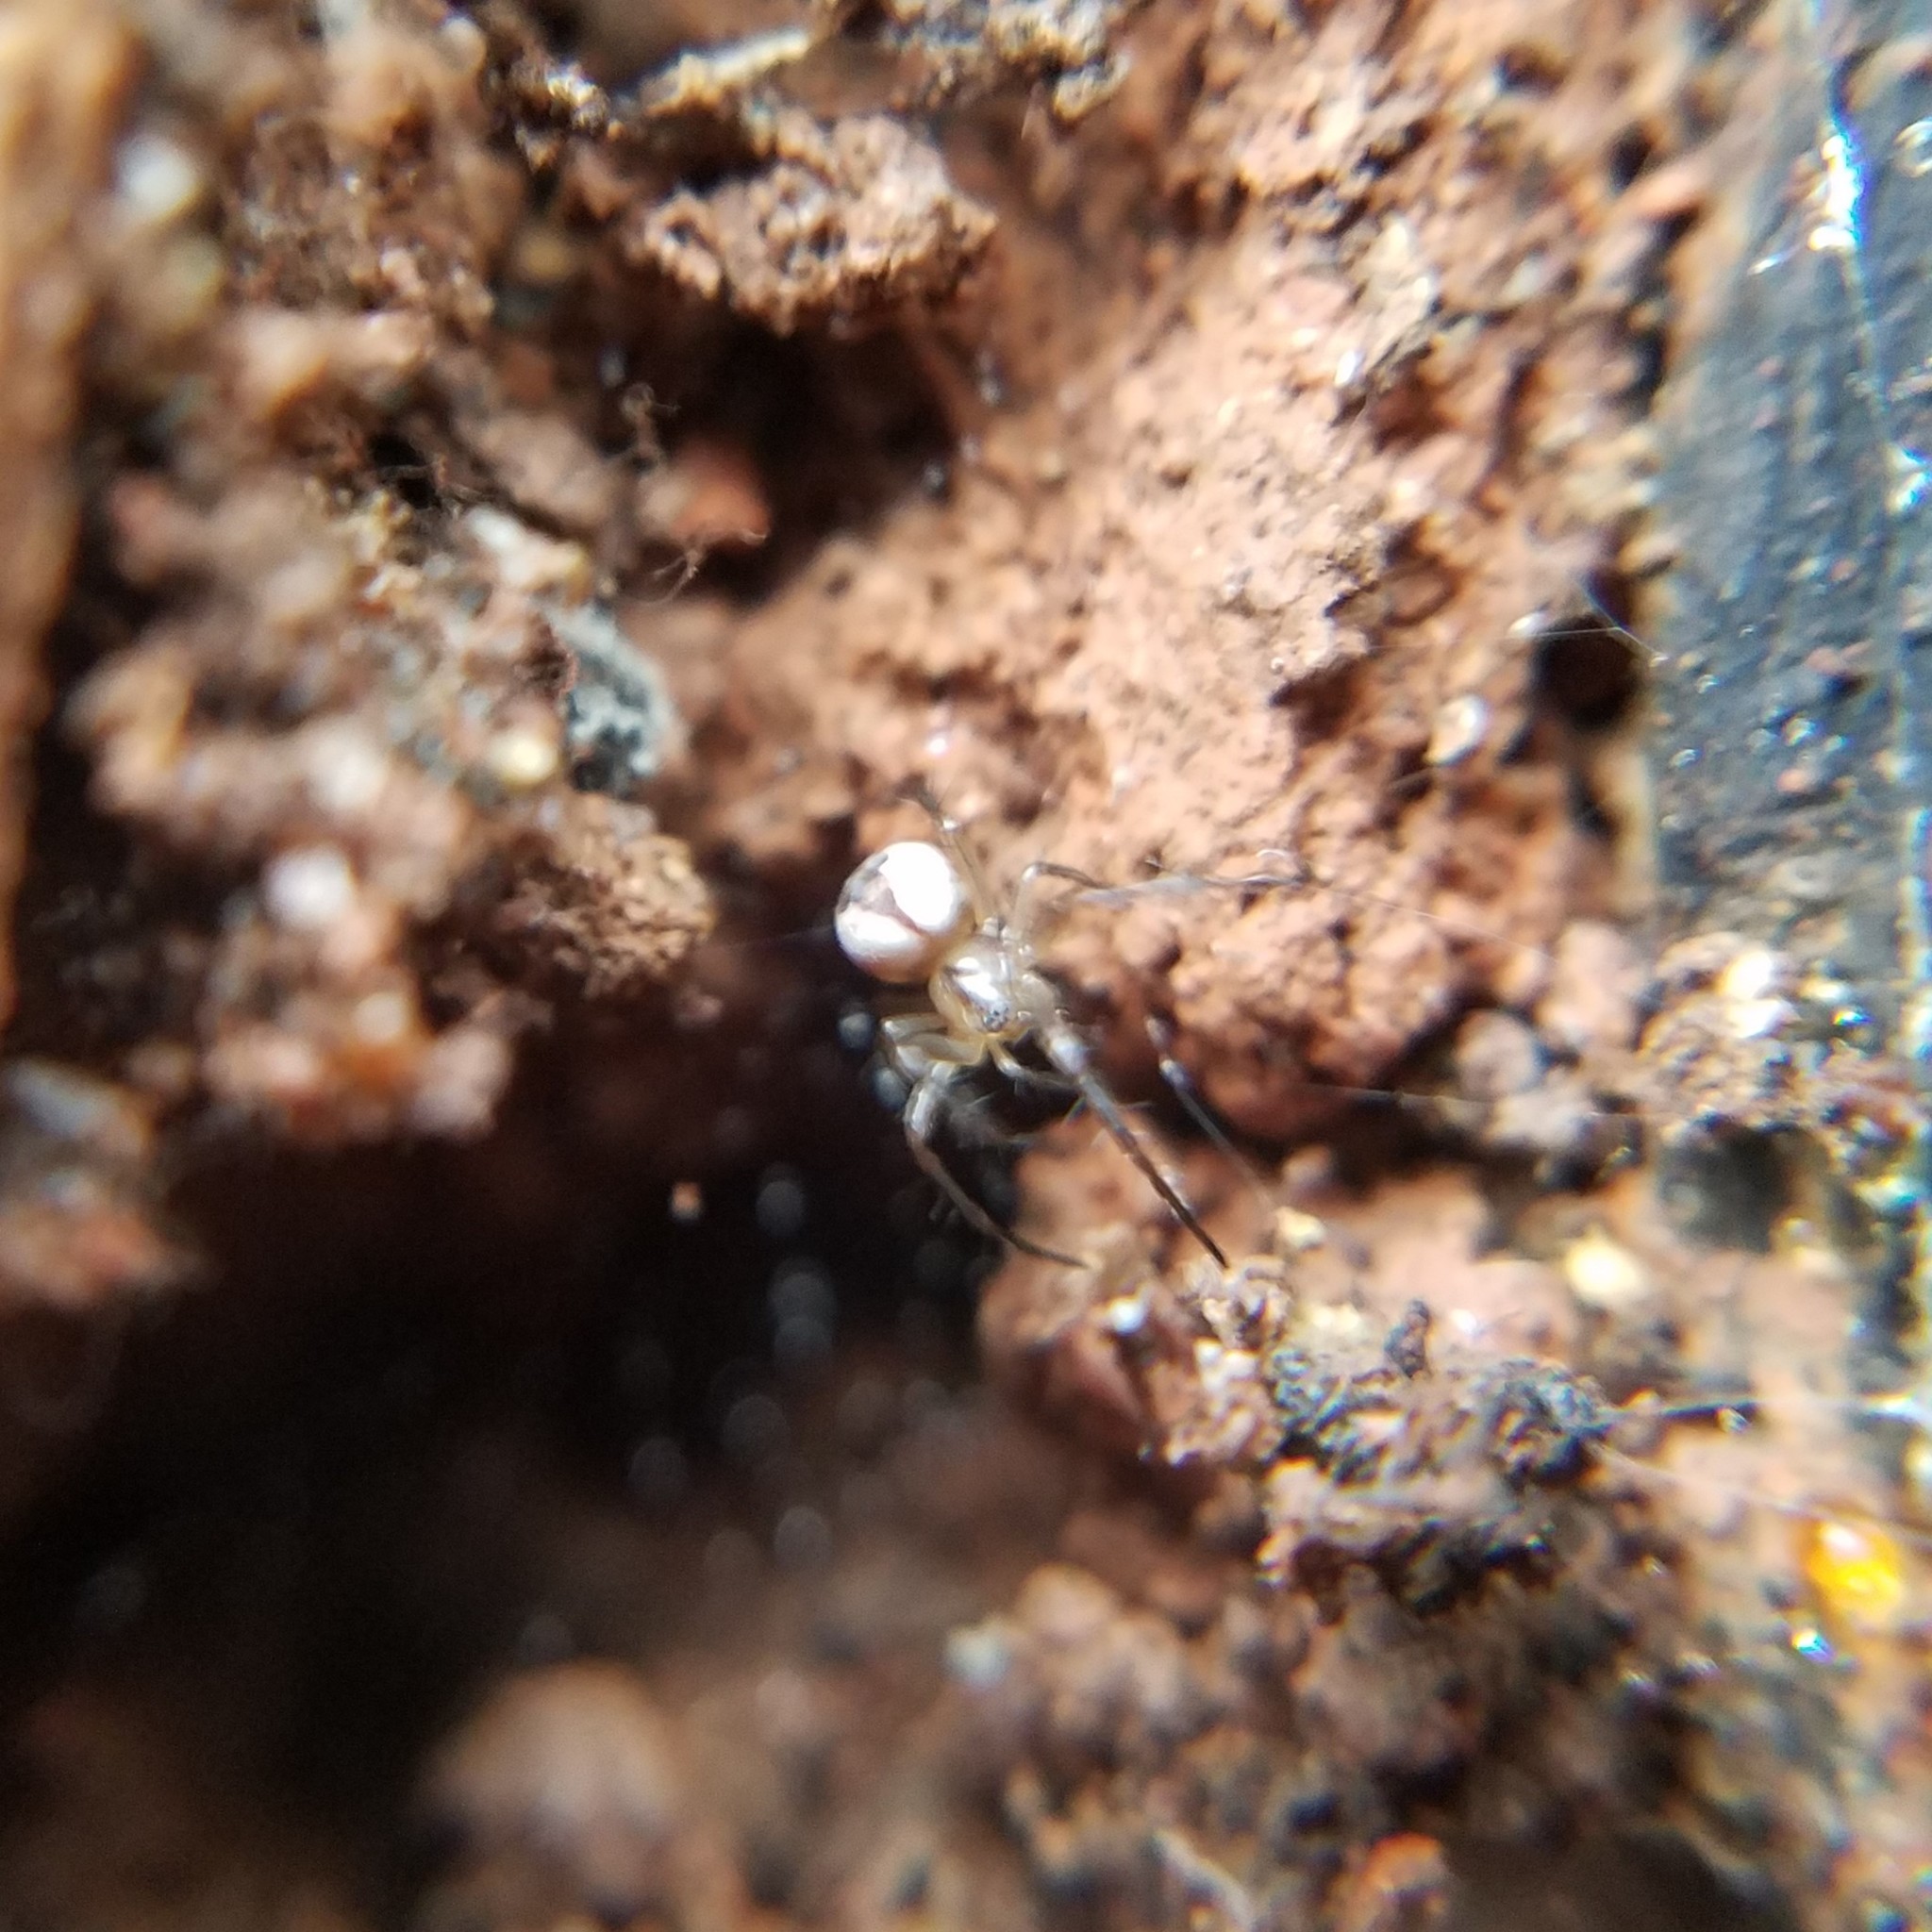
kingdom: Animalia
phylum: Arthropoda
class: Arachnida
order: Araneae
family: Araneidae
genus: Mangora
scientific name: Mangora placida
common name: Tuft-legged orbweaver
